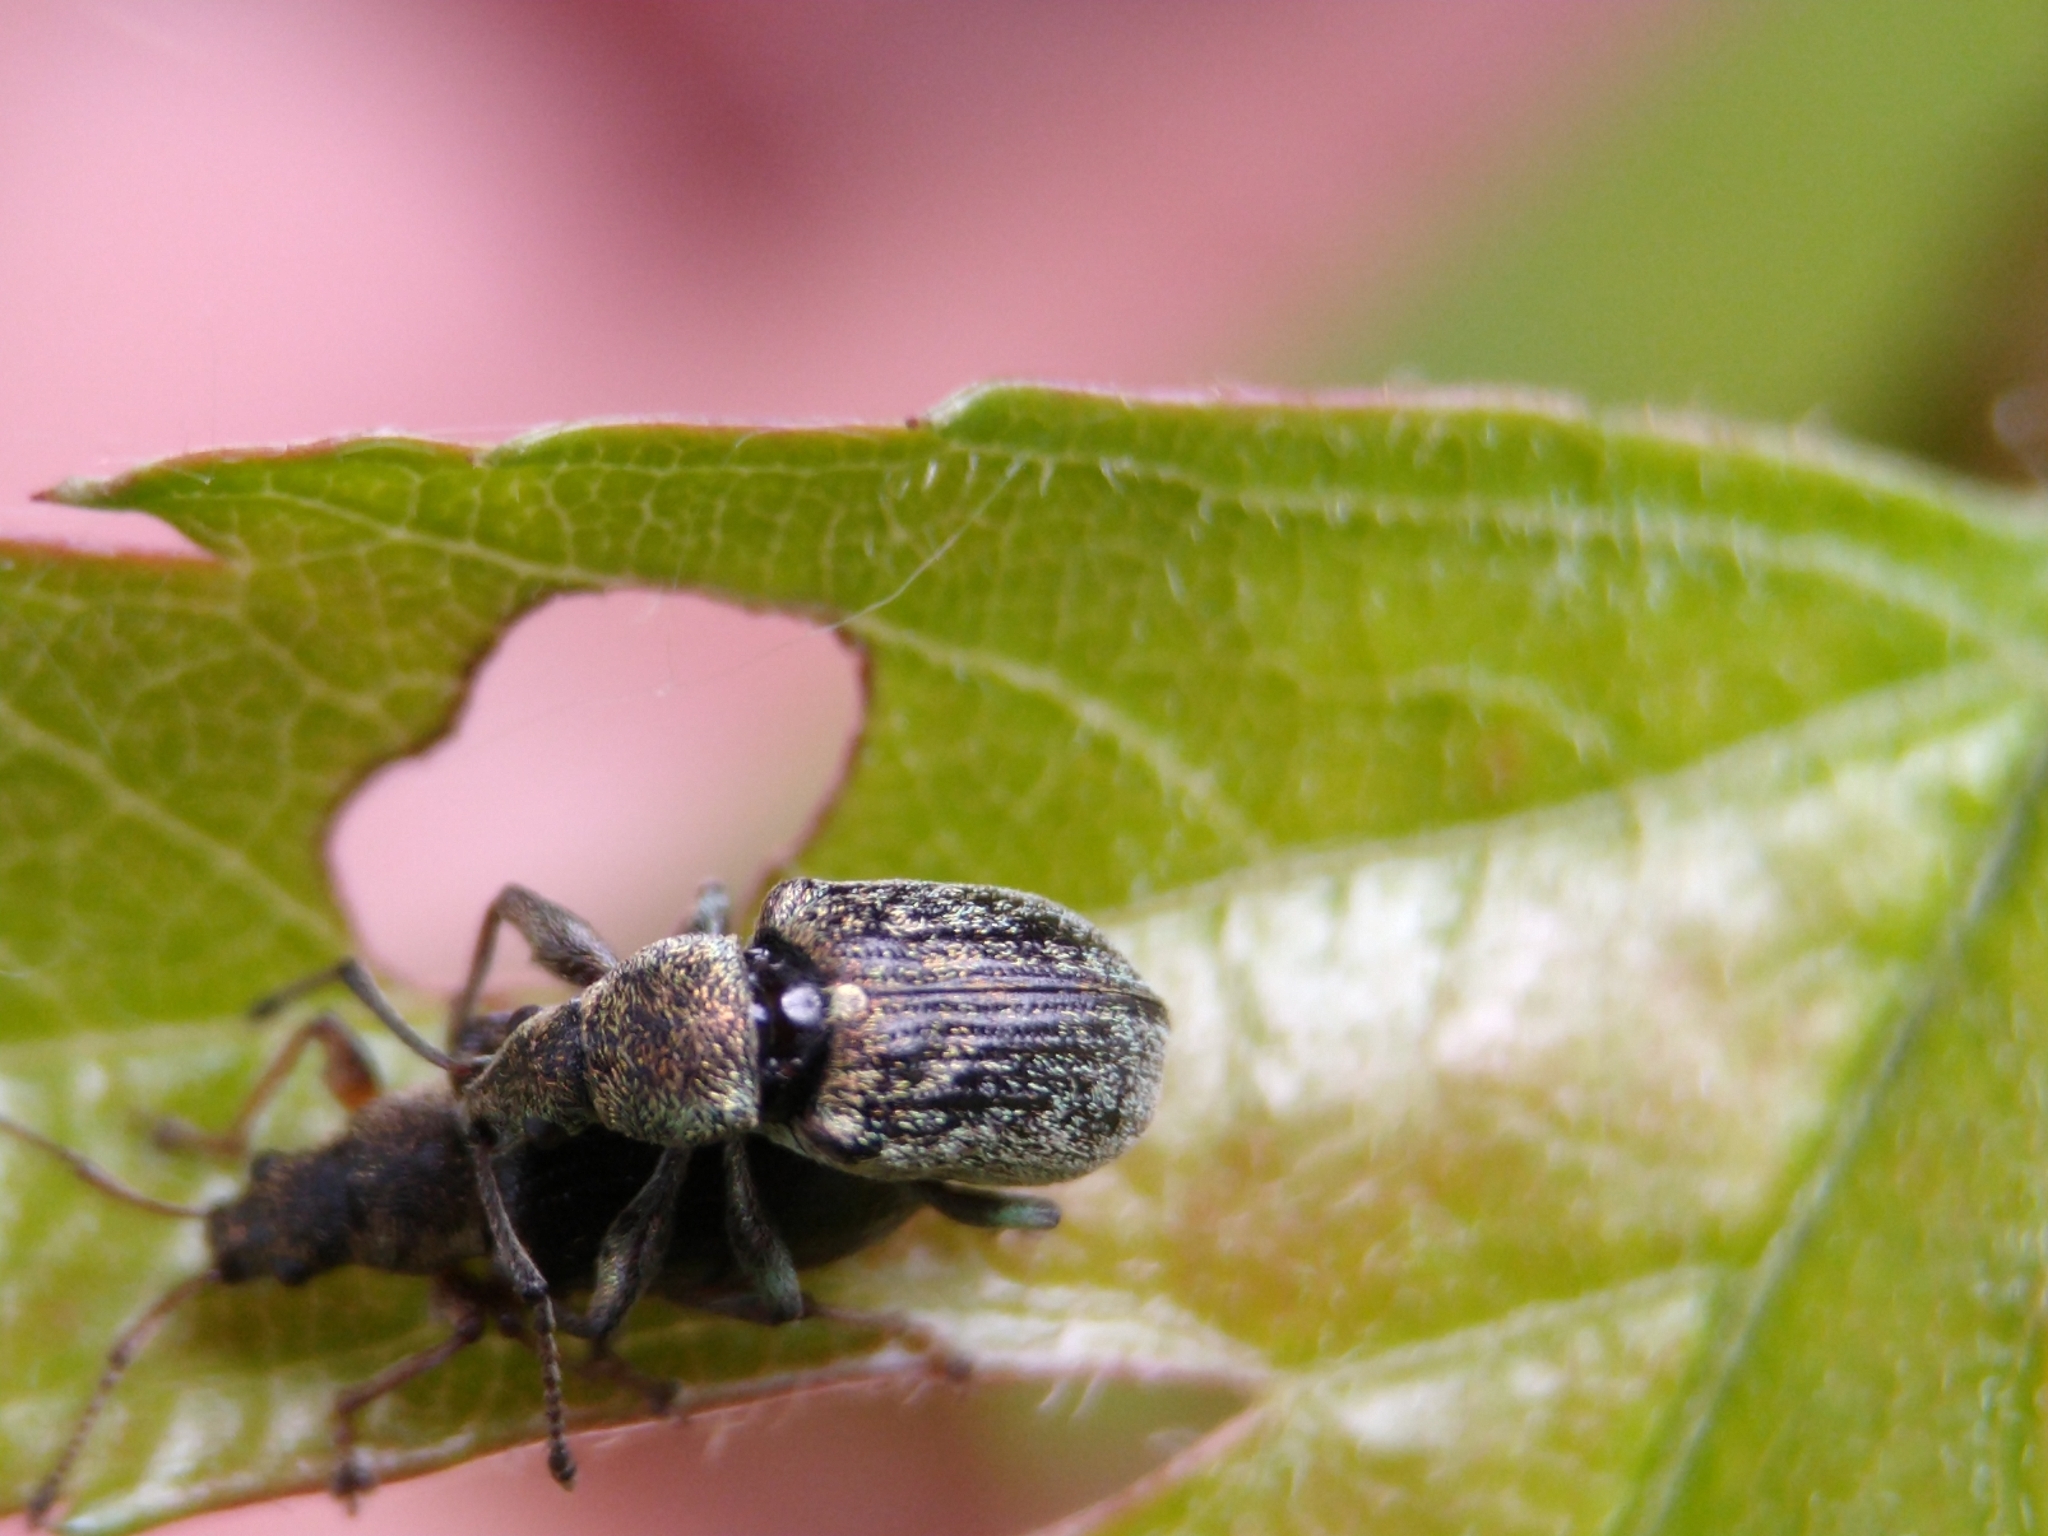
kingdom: Animalia
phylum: Arthropoda
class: Insecta
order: Coleoptera
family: Curculionidae
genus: Phyllobius
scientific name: Phyllobius pyri
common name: Common leaf weevil
